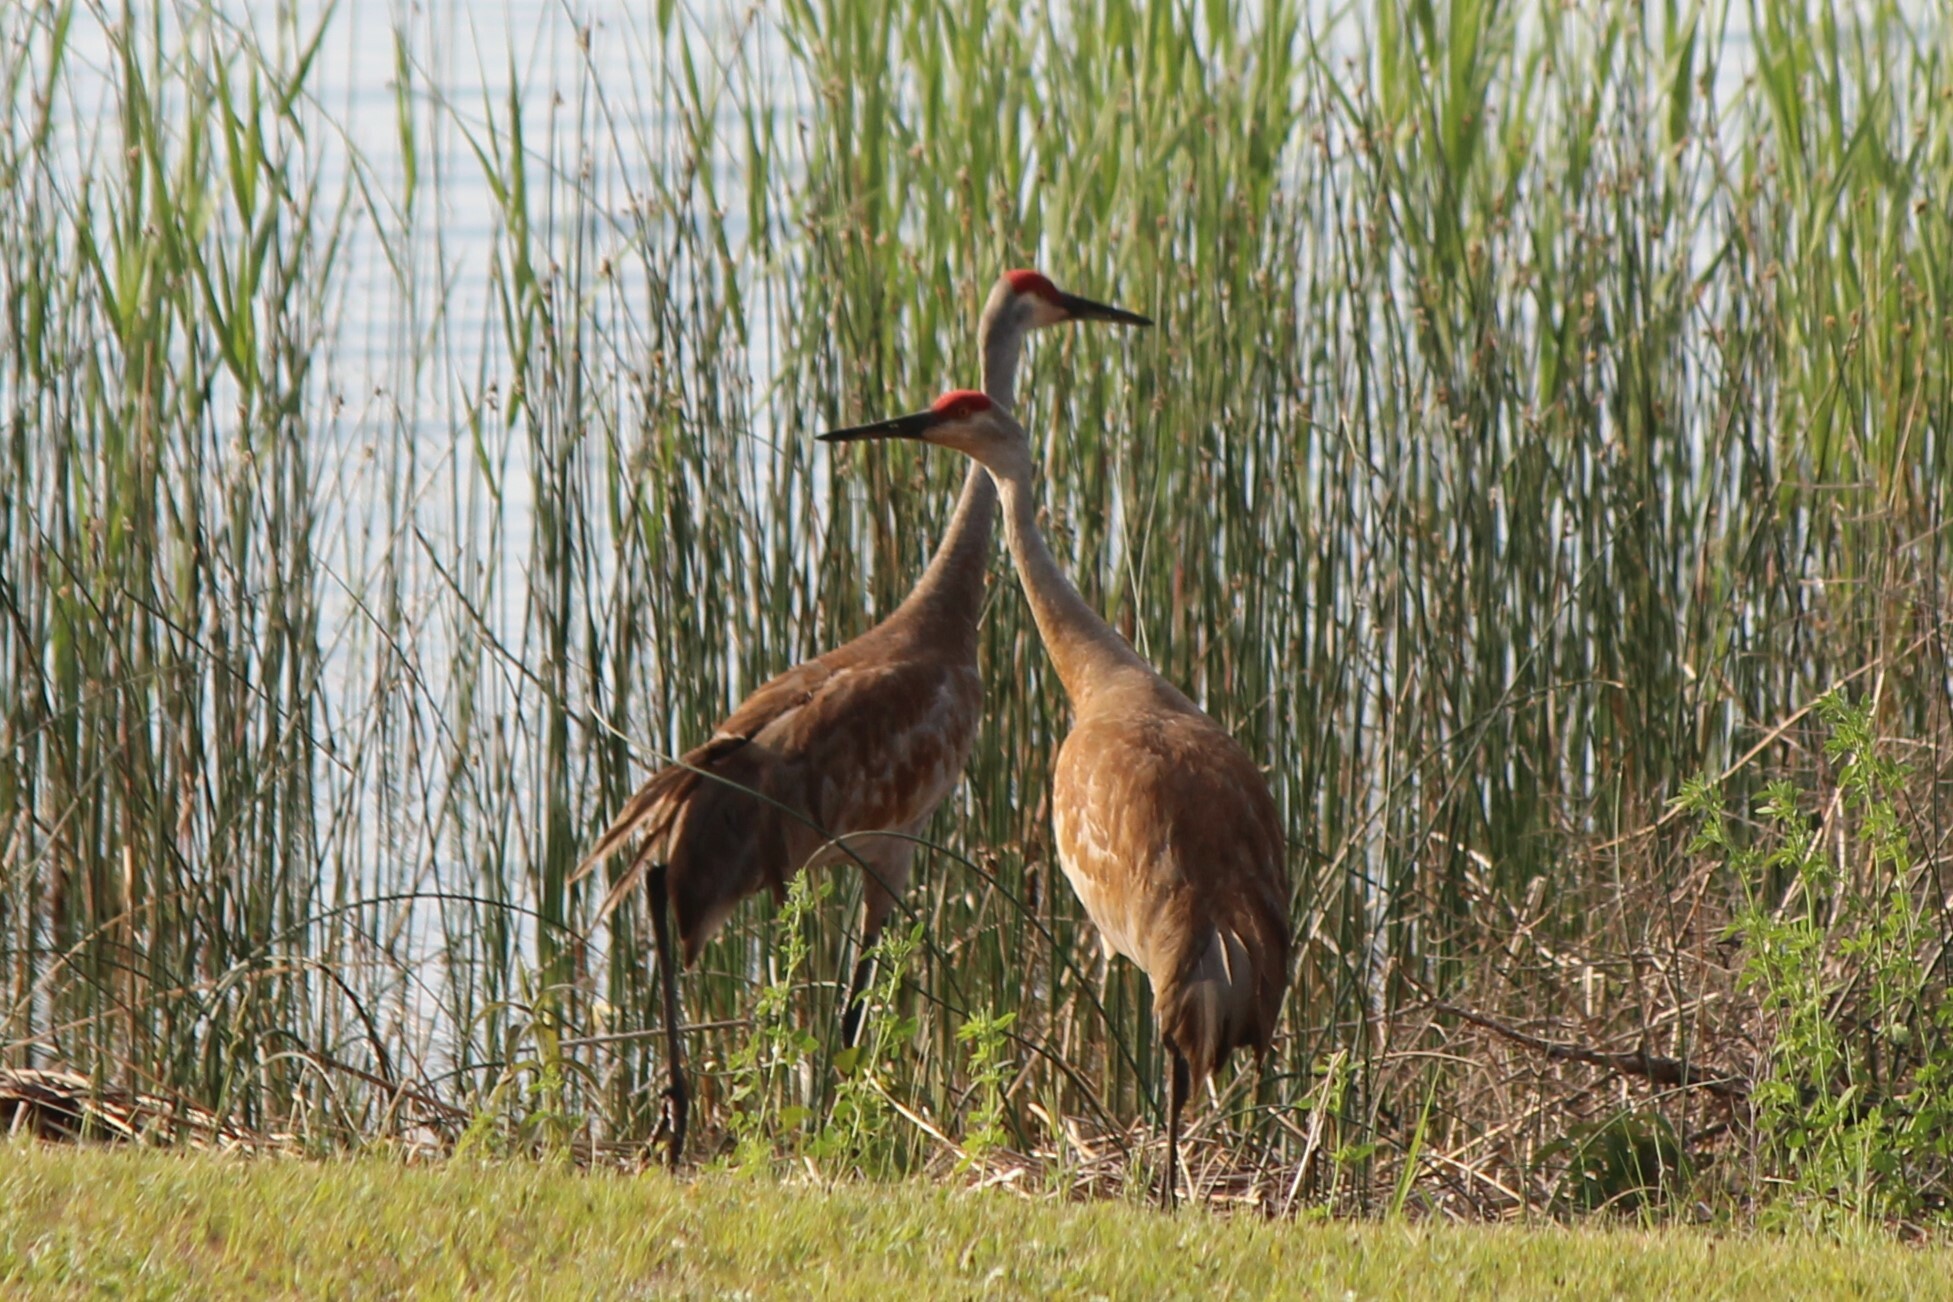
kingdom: Animalia
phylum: Chordata
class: Aves
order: Gruiformes
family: Gruidae
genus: Grus
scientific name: Grus canadensis
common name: Sandhill crane
